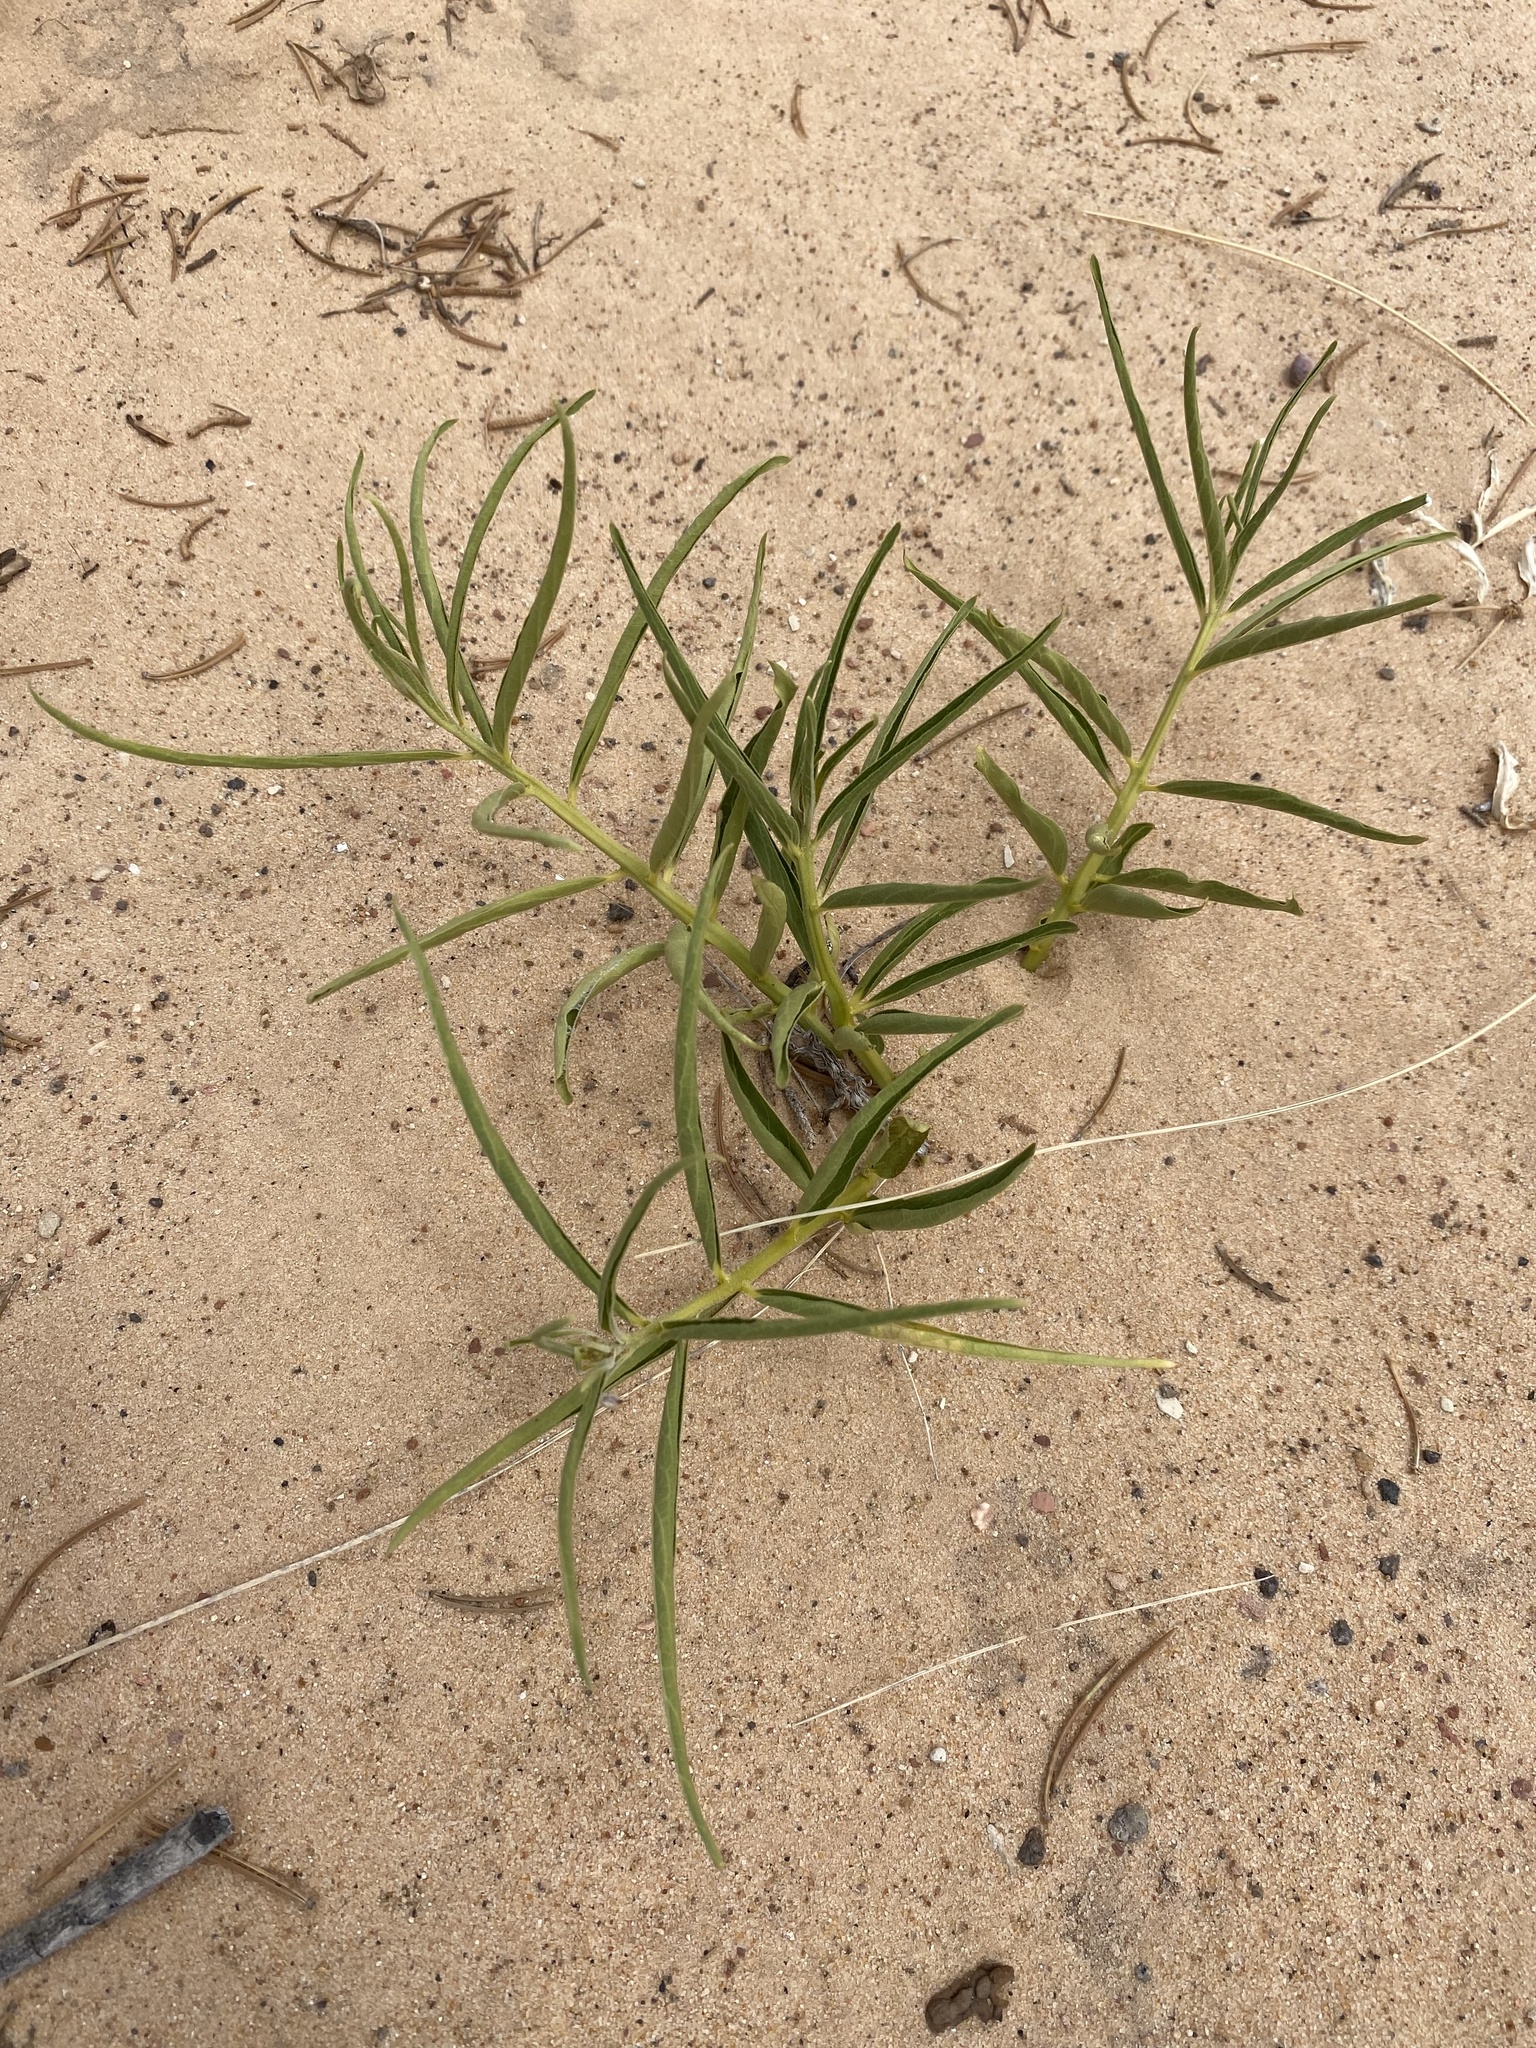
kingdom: Plantae
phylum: Tracheophyta
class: Magnoliopsida
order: Gentianales
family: Apocynaceae
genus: Asclepias
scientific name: Asclepias asperula
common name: Antelope horns
